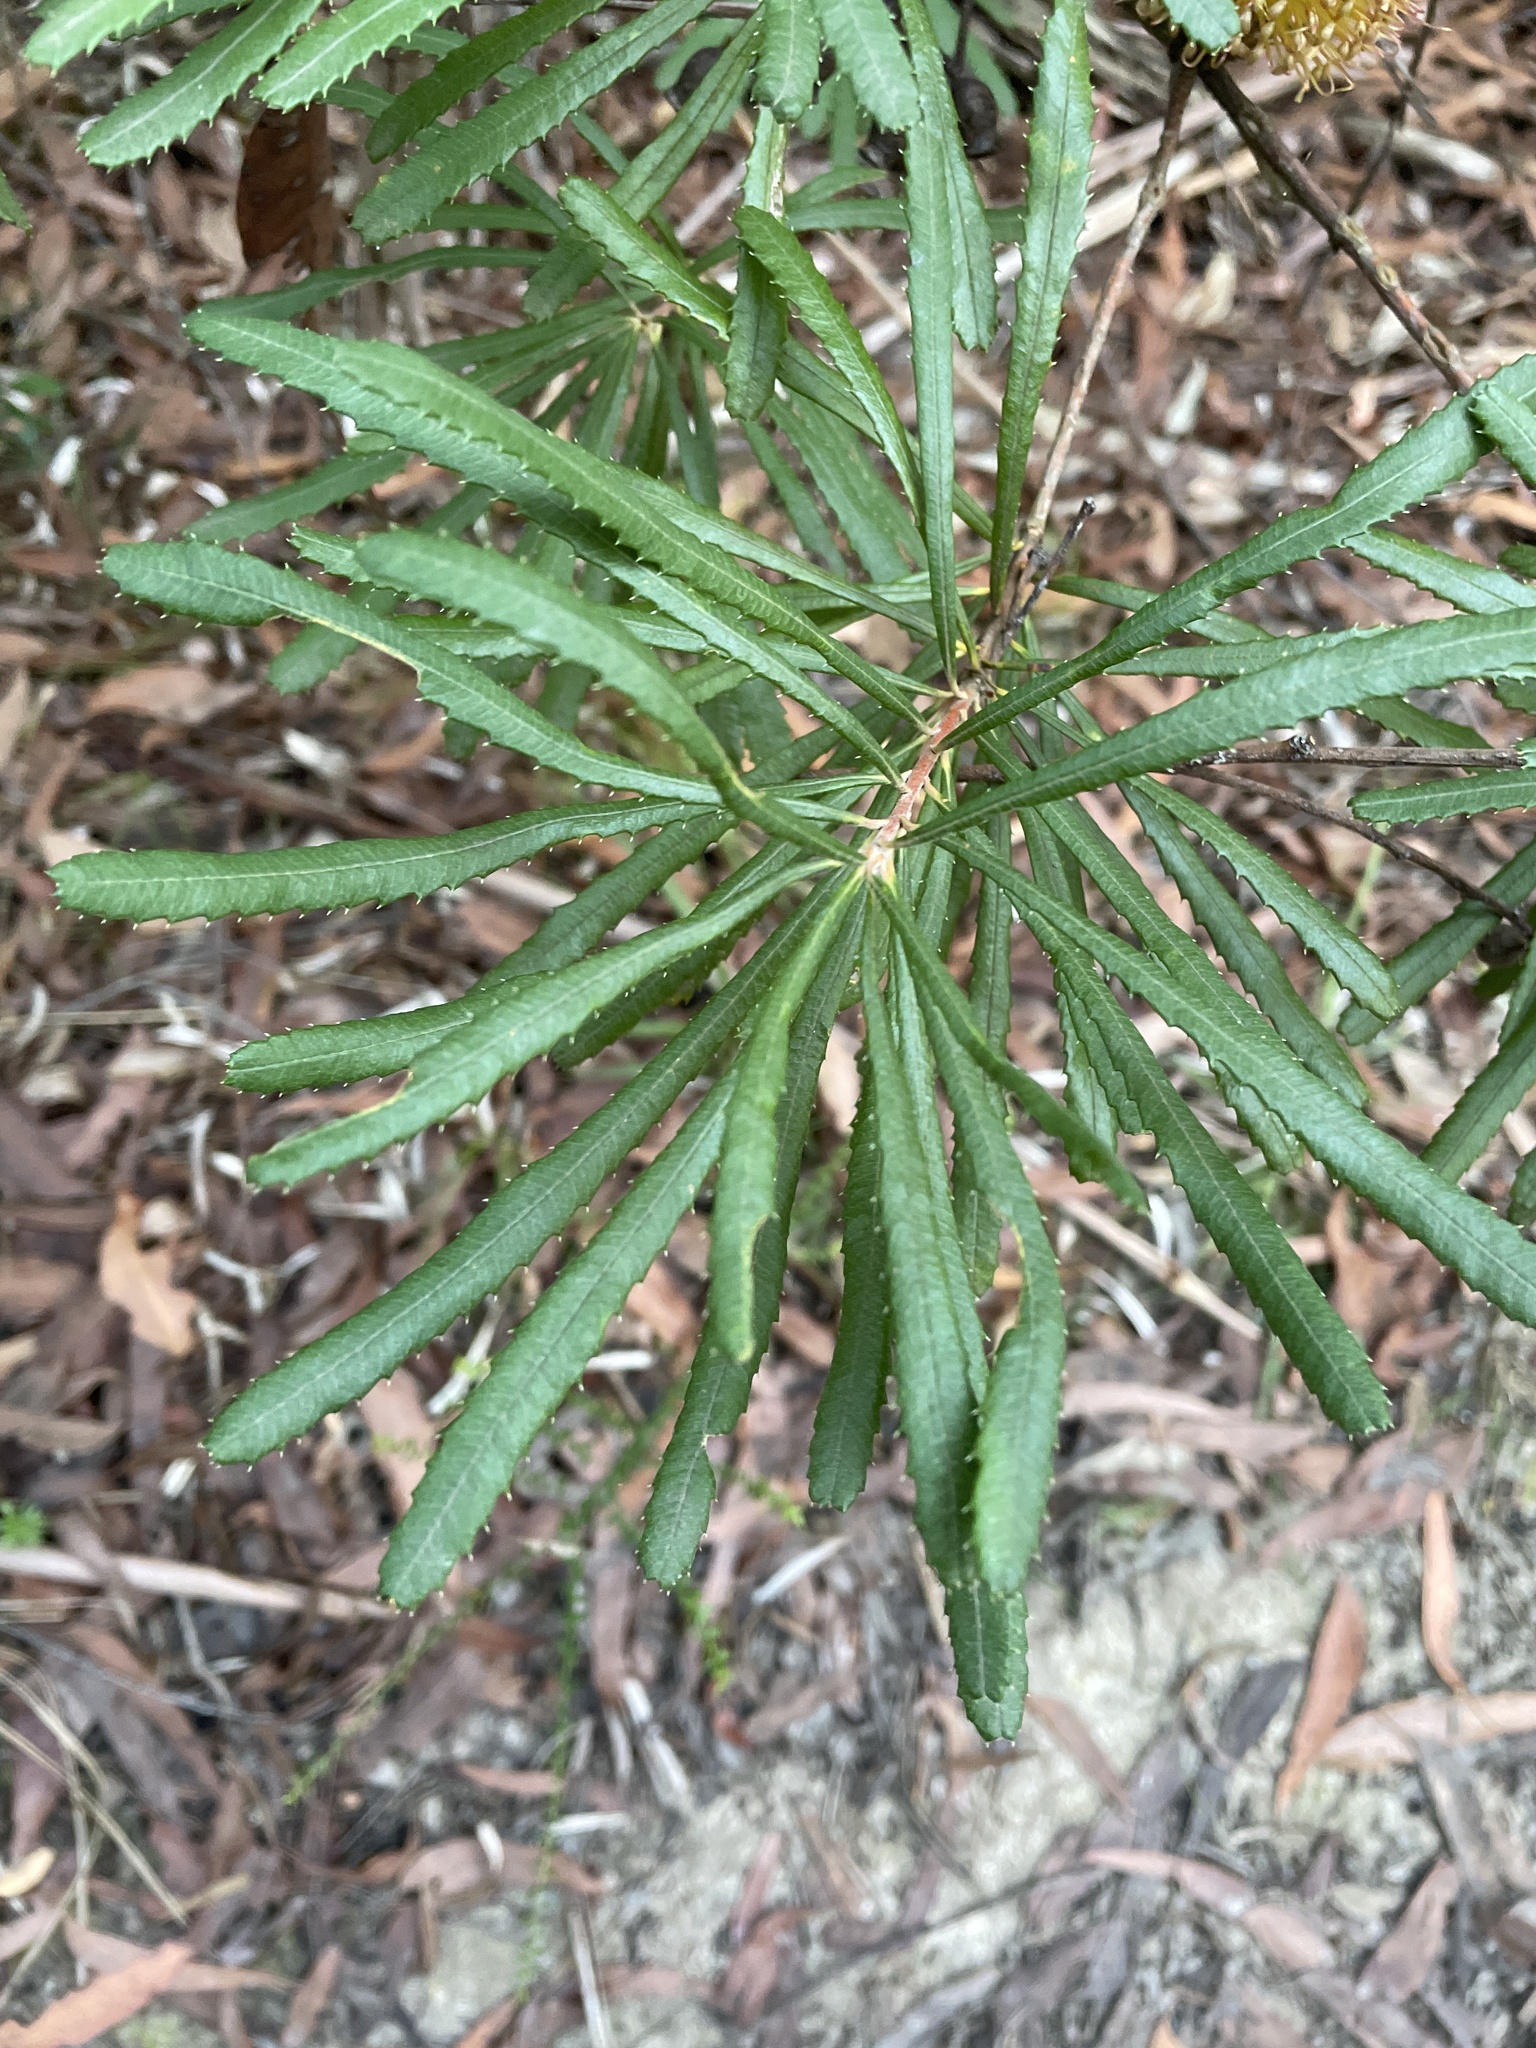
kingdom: Plantae
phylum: Tracheophyta
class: Magnoliopsida
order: Proteales
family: Proteaceae
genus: Banksia
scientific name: Banksia spinulosa
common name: Hairpin banksia
